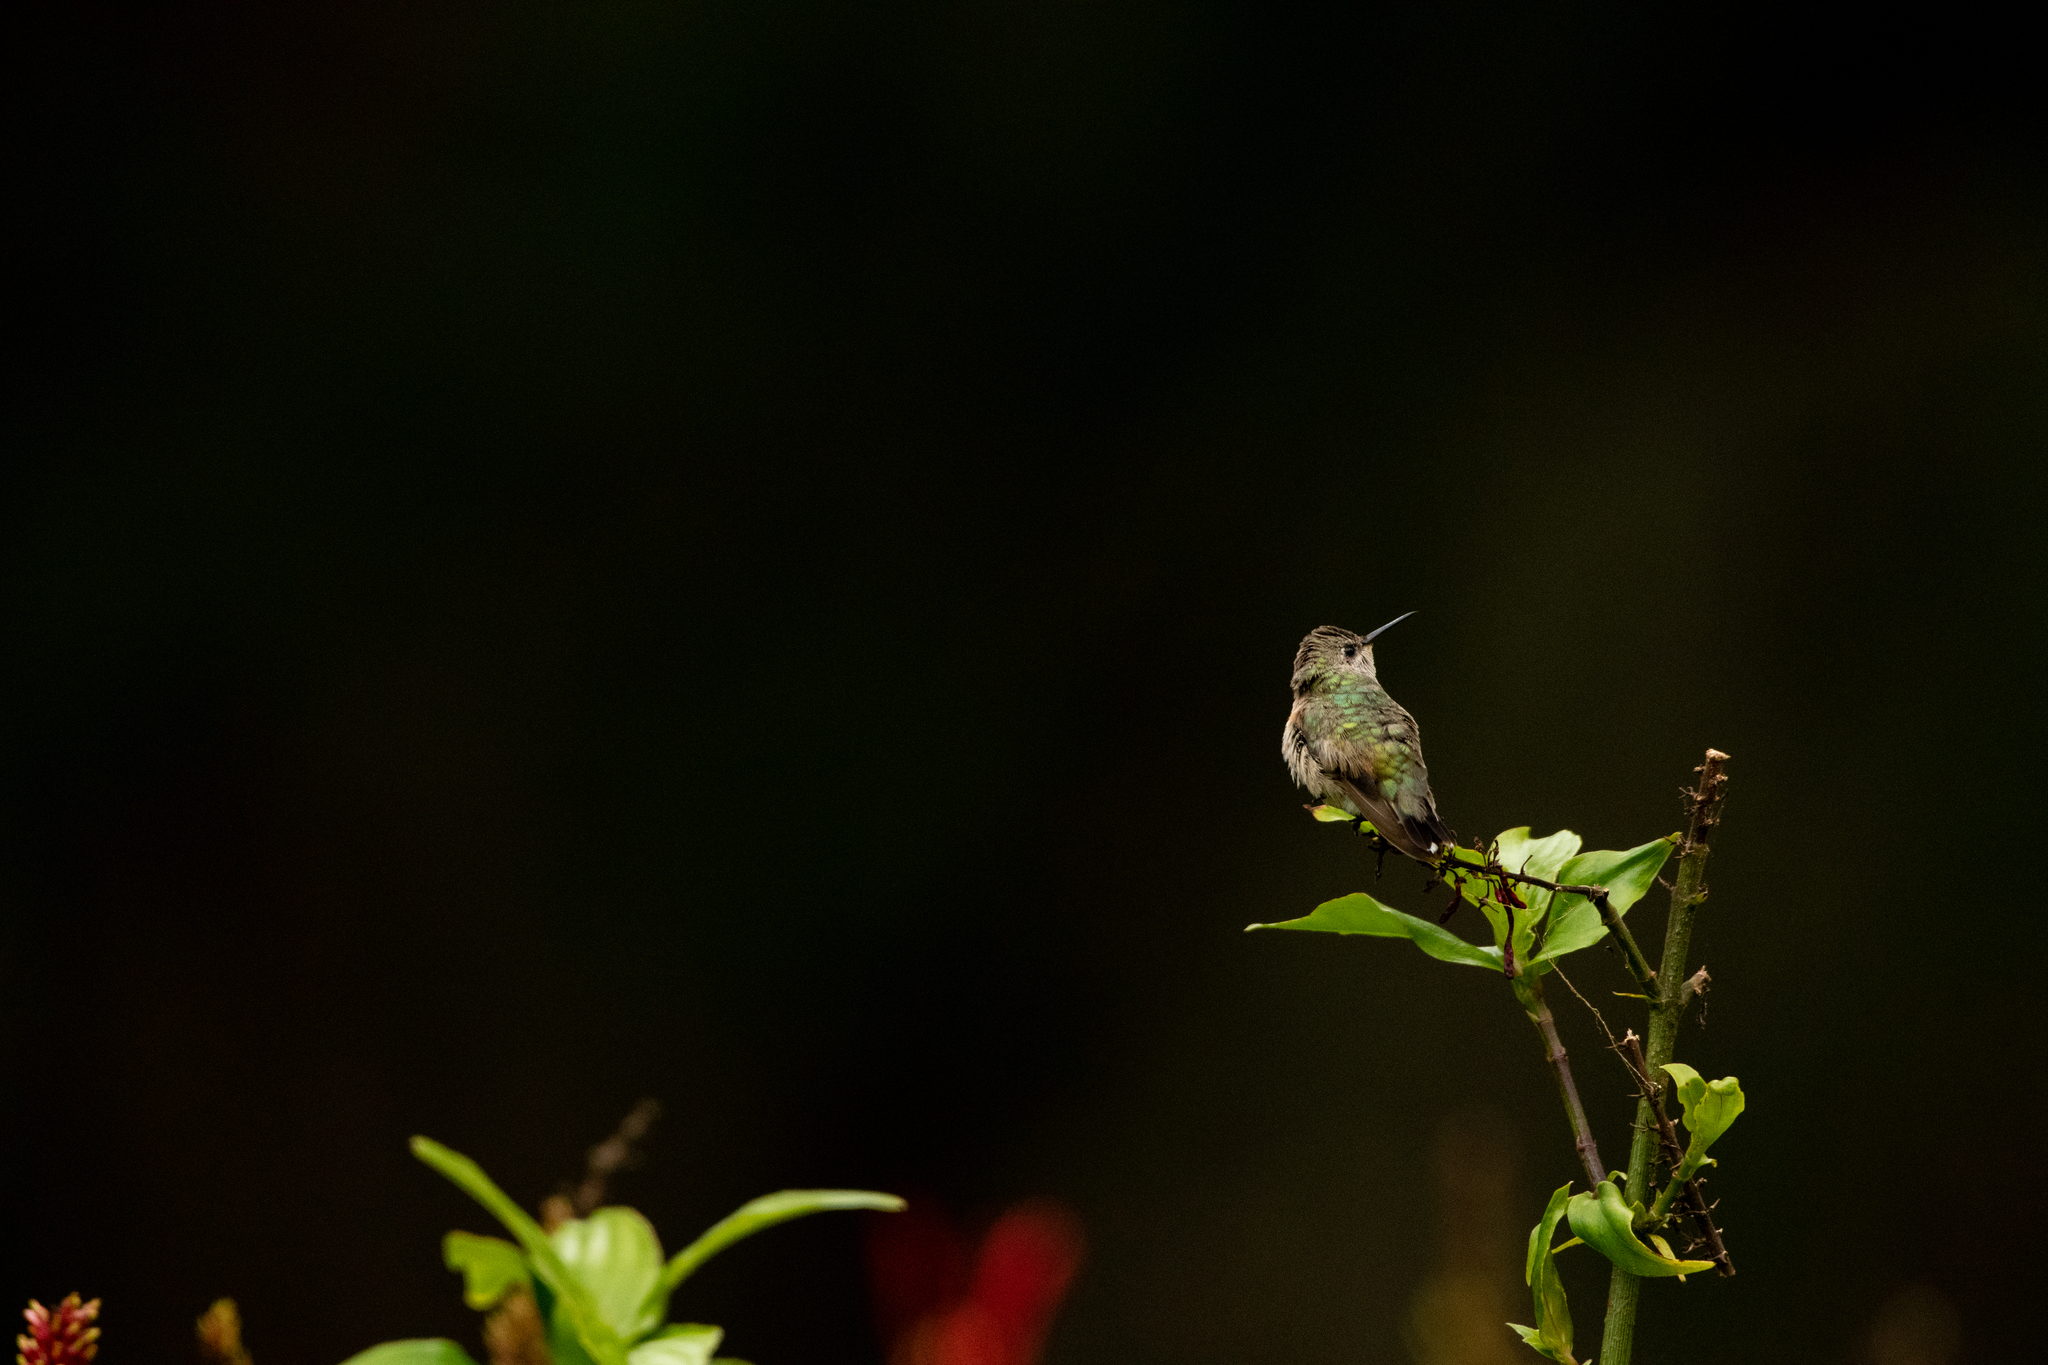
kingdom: Animalia
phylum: Chordata
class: Aves
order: Apodiformes
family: Trochilidae
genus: Selasphorus
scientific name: Selasphorus calliope
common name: Calliope hummingbird
